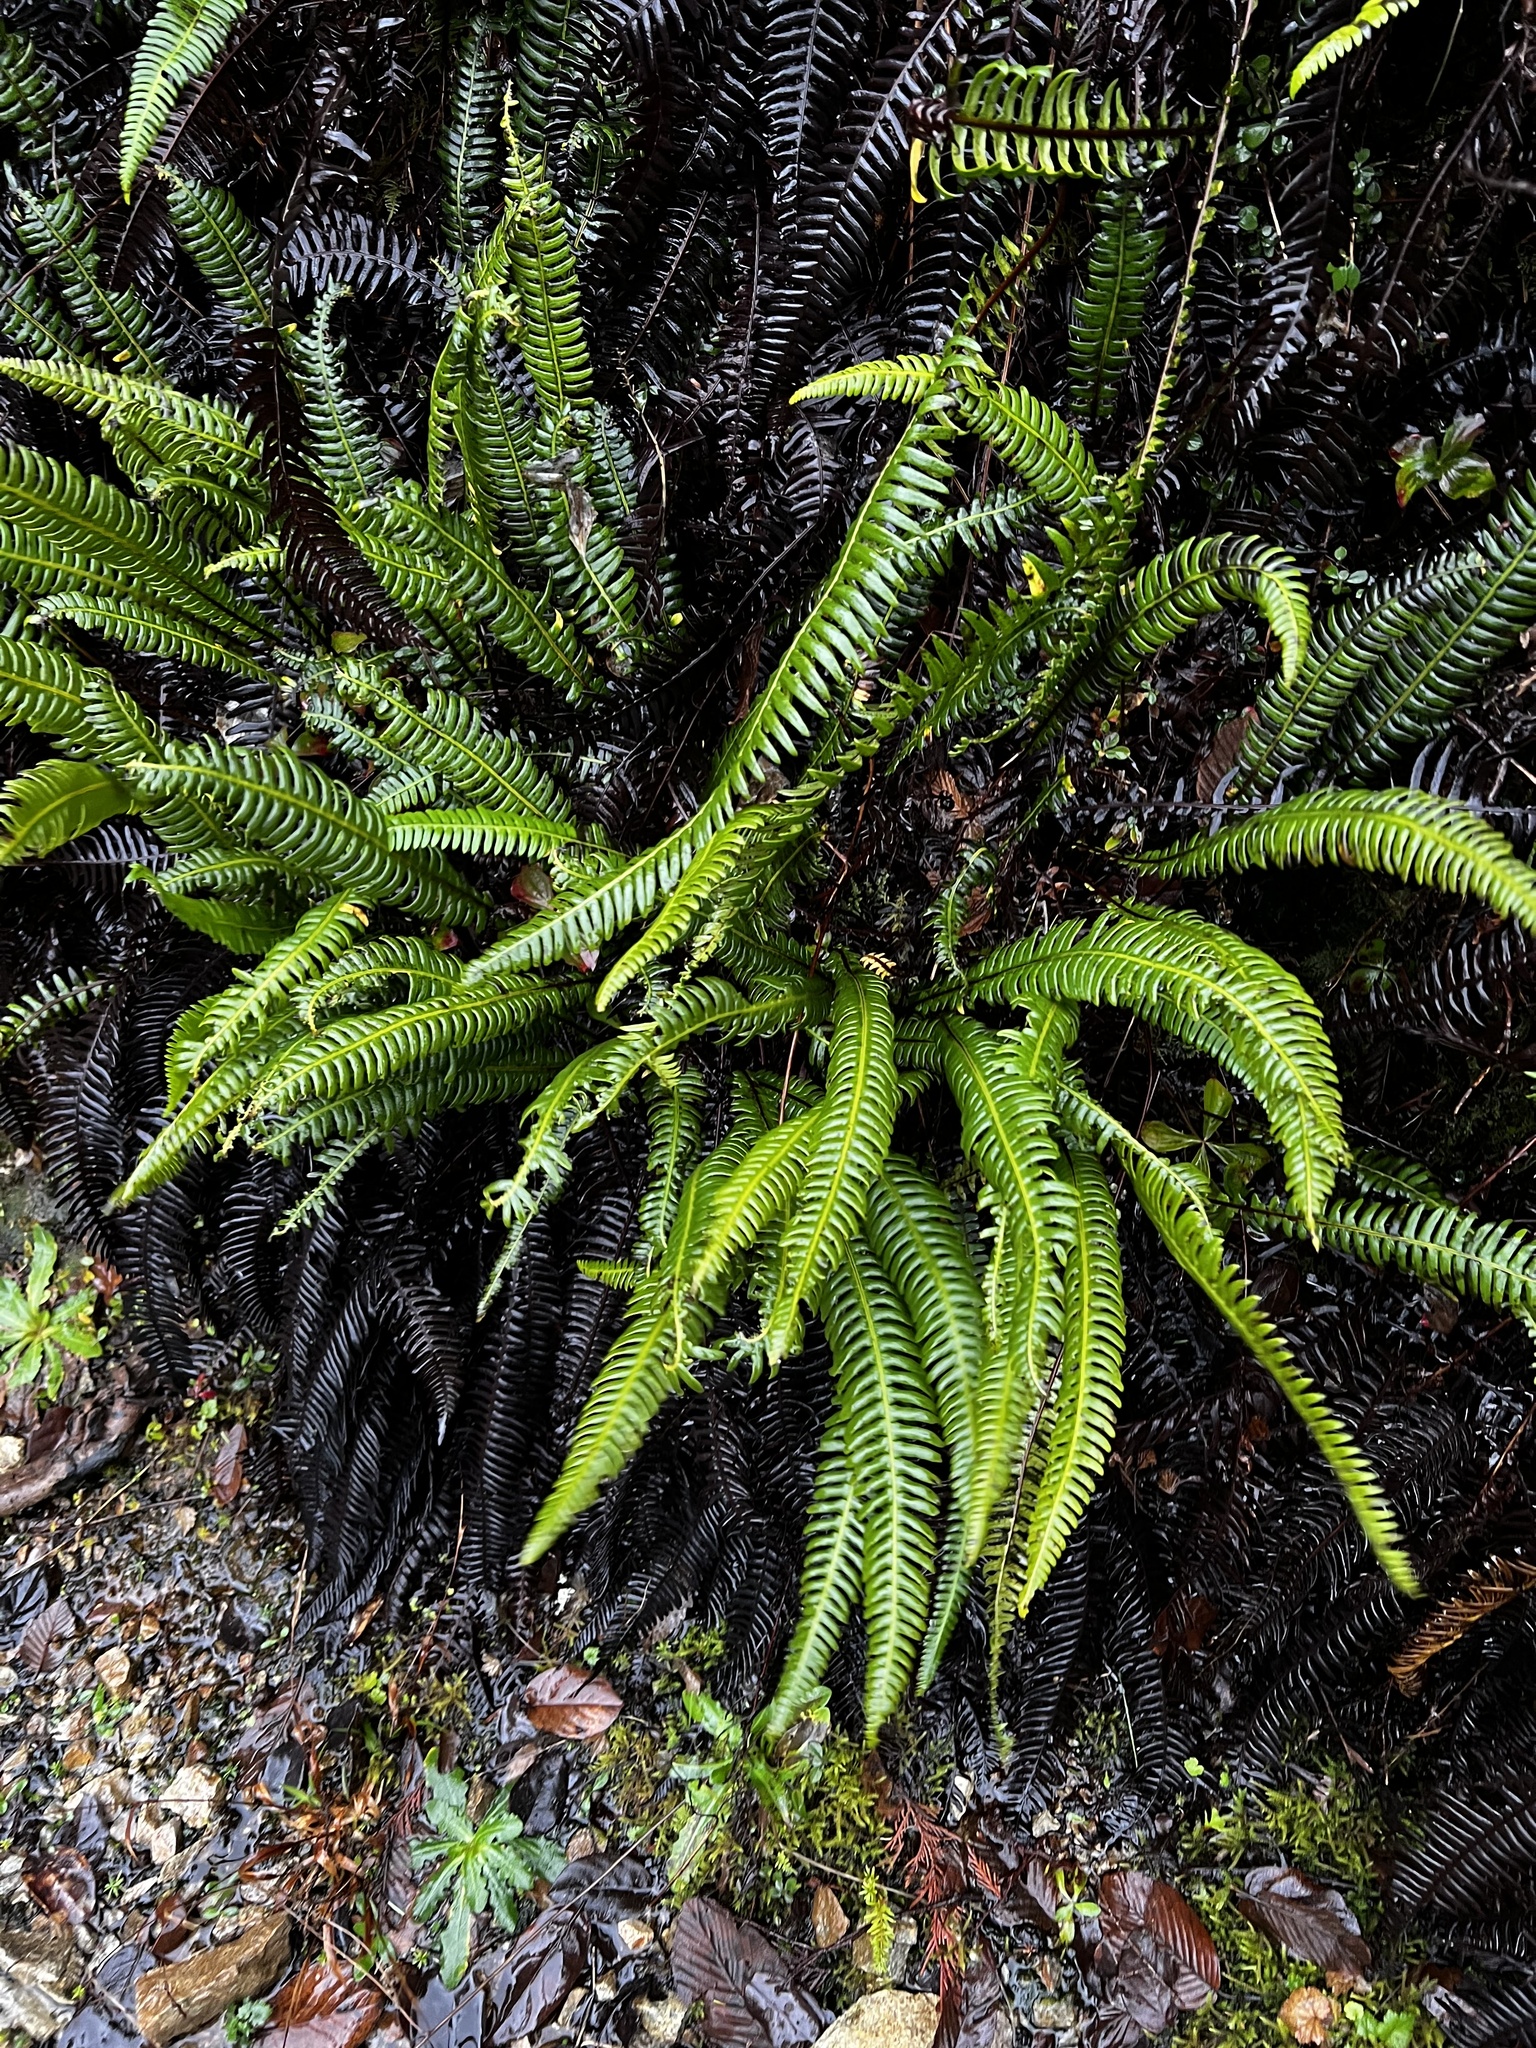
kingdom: Plantae
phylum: Tracheophyta
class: Polypodiopsida
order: Polypodiales
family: Blechnaceae
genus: Struthiopteris
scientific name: Struthiopteris spicant
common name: Deer fern
